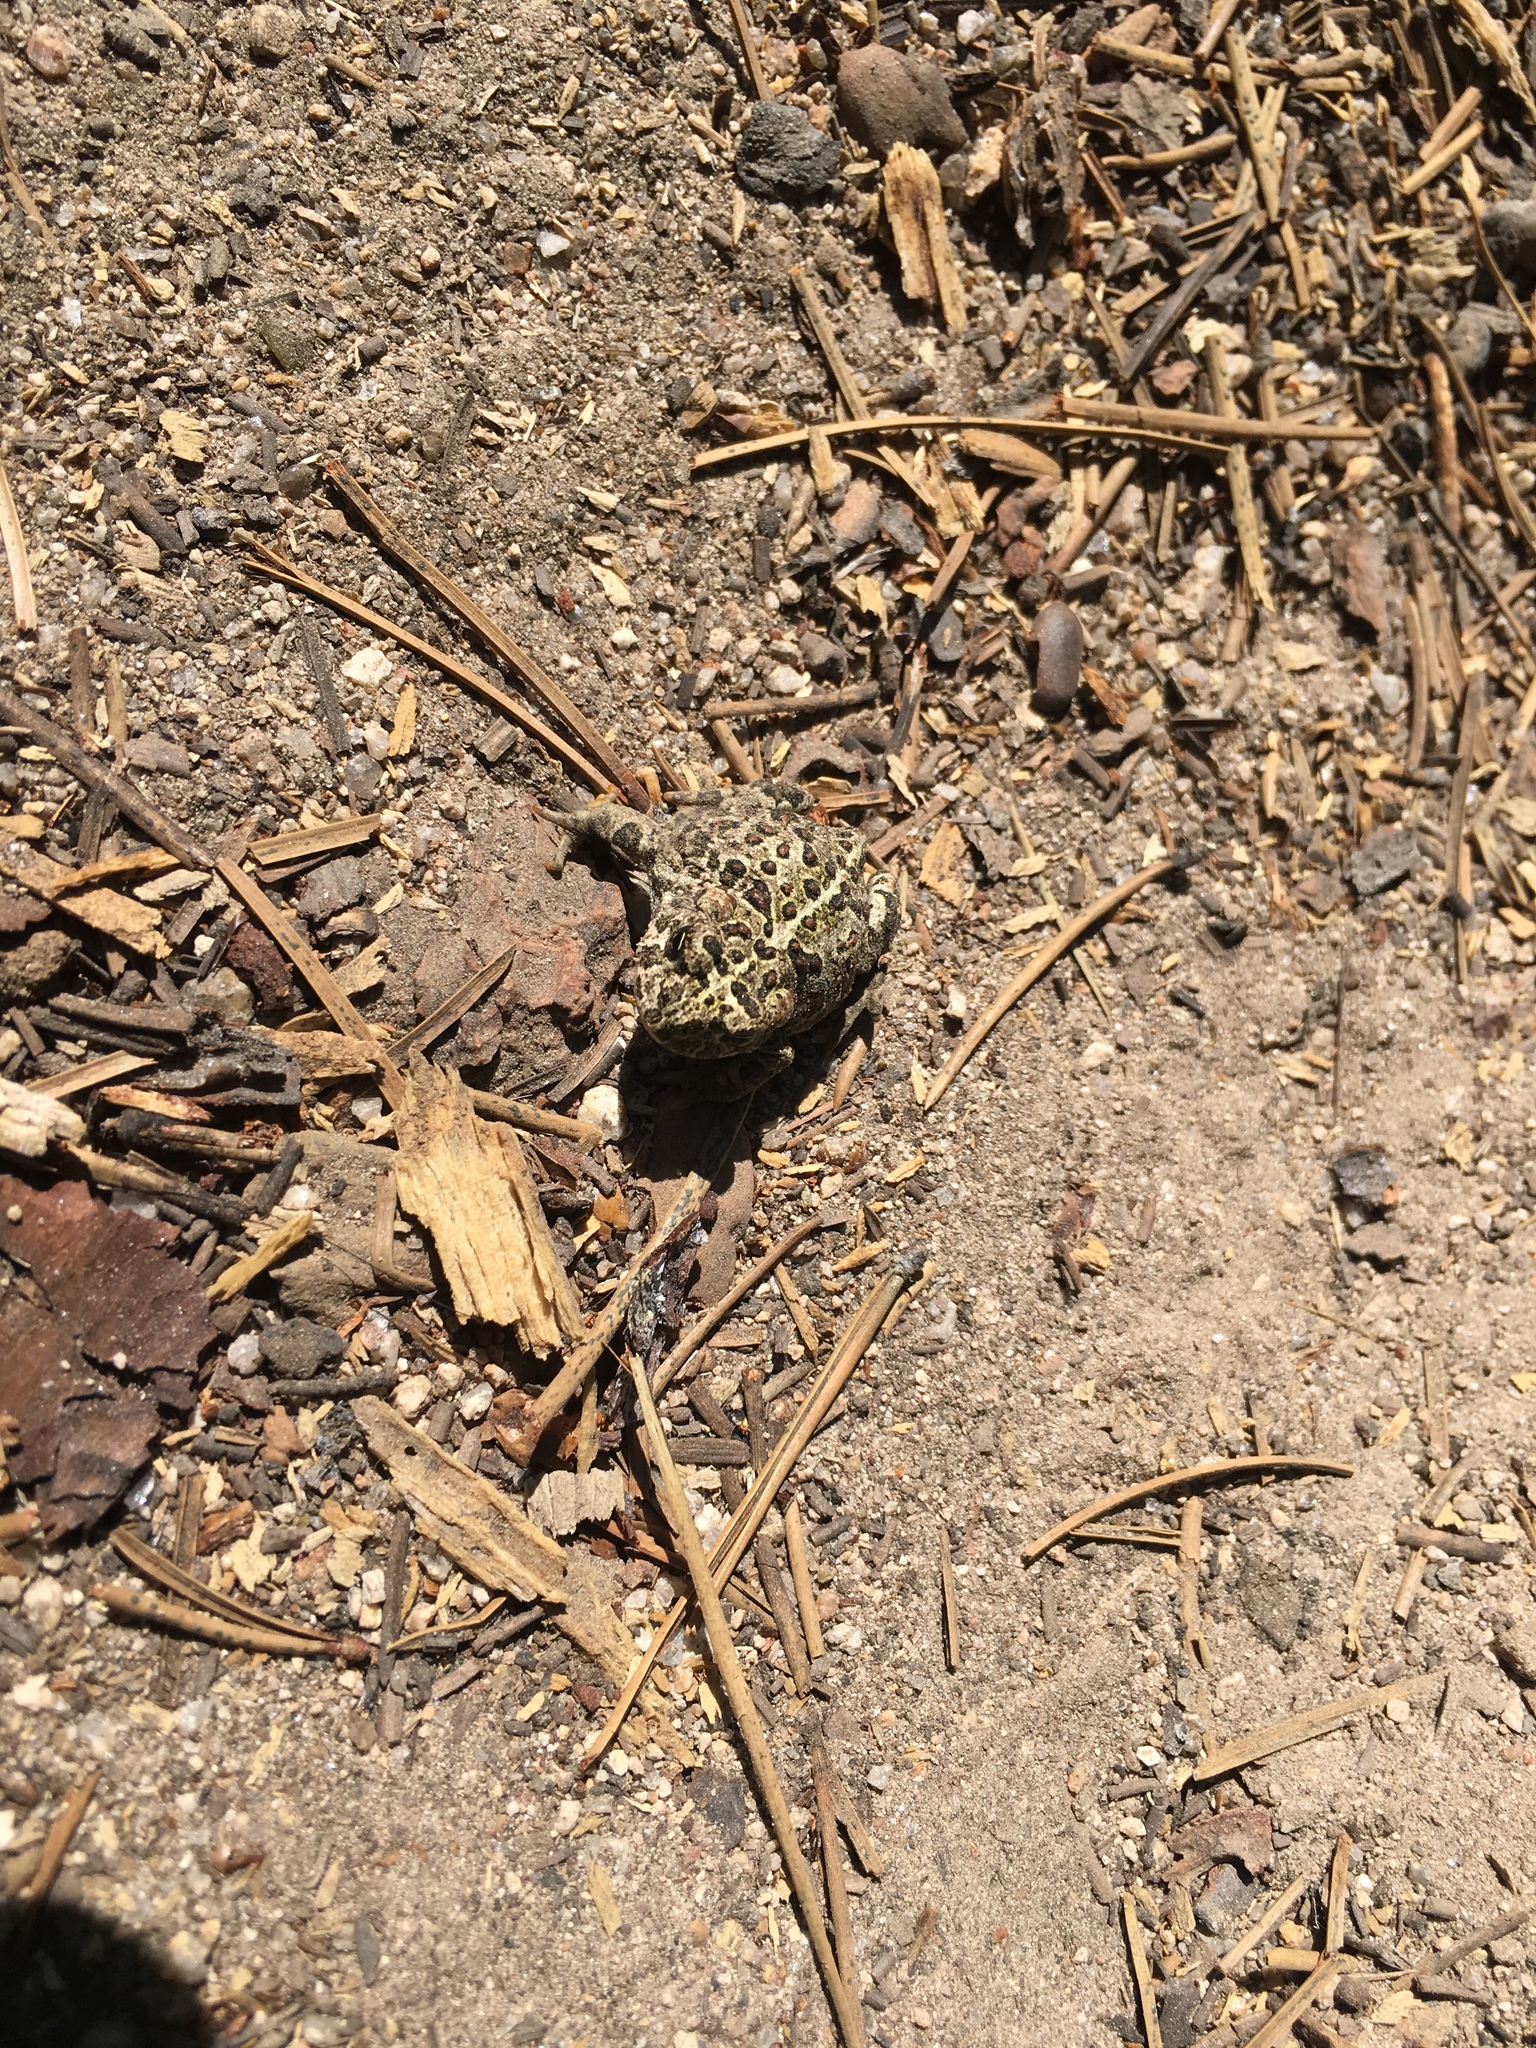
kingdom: Animalia
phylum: Chordata
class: Amphibia
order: Anura
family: Bufonidae
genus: Anaxyrus
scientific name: Anaxyrus boreas
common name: Western toad
